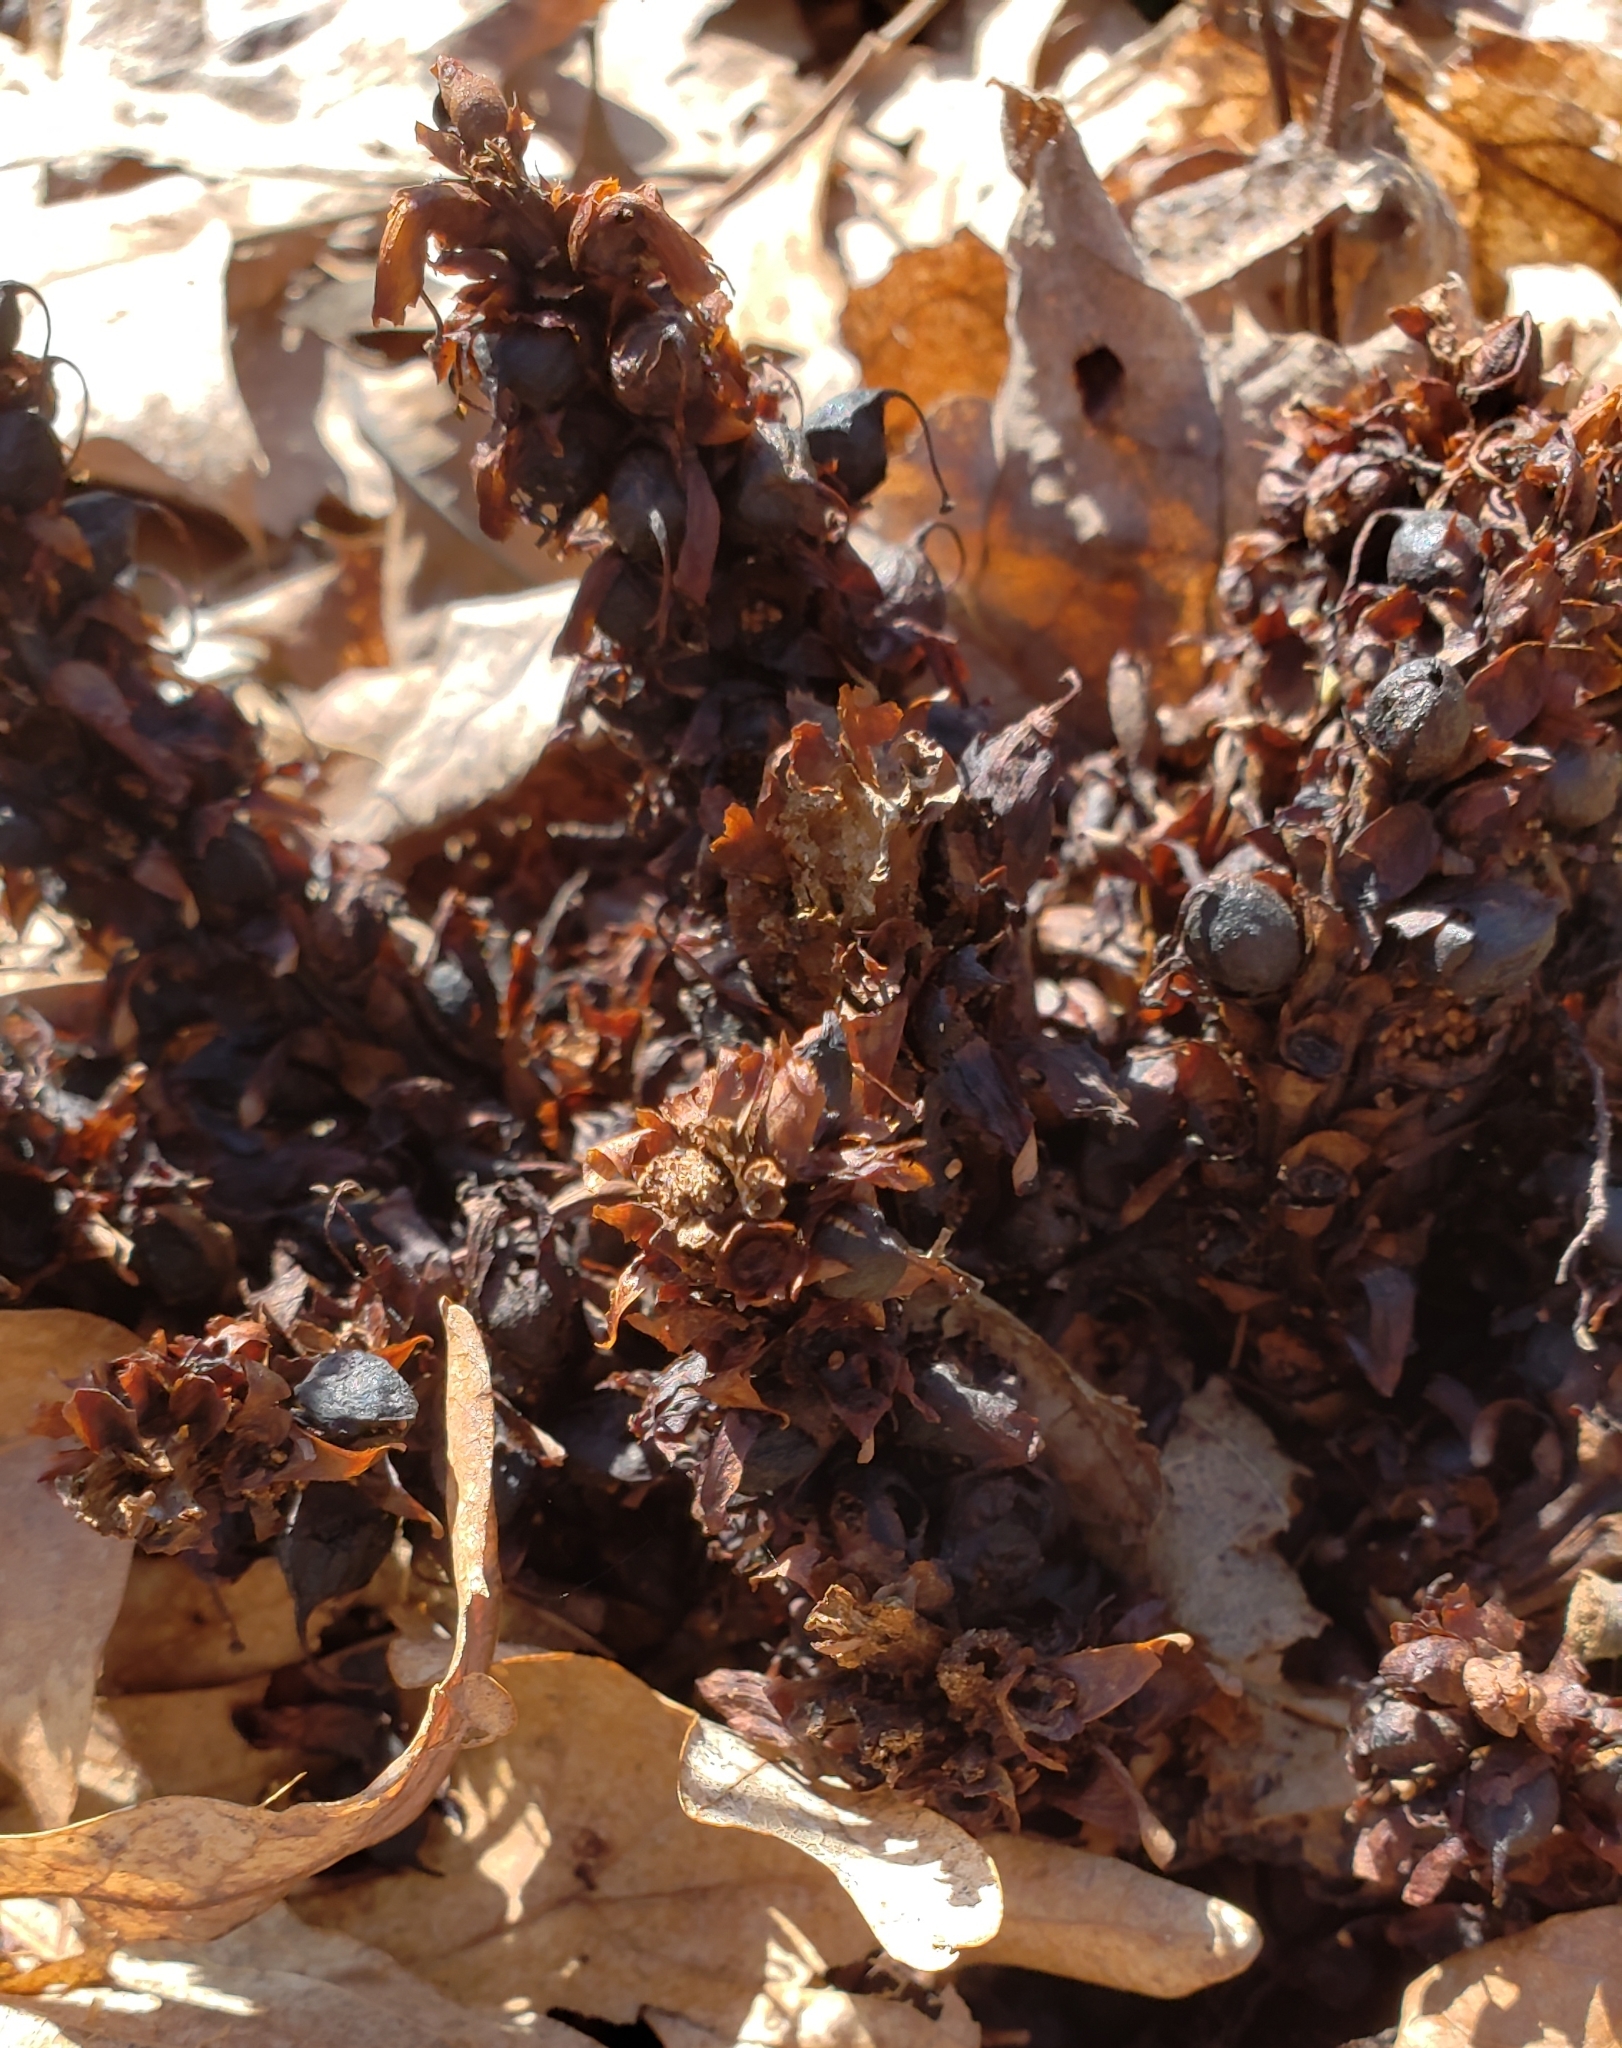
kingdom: Plantae
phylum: Tracheophyta
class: Magnoliopsida
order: Lamiales
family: Orobanchaceae
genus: Conopholis
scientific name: Conopholis americana
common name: American cancer-root
